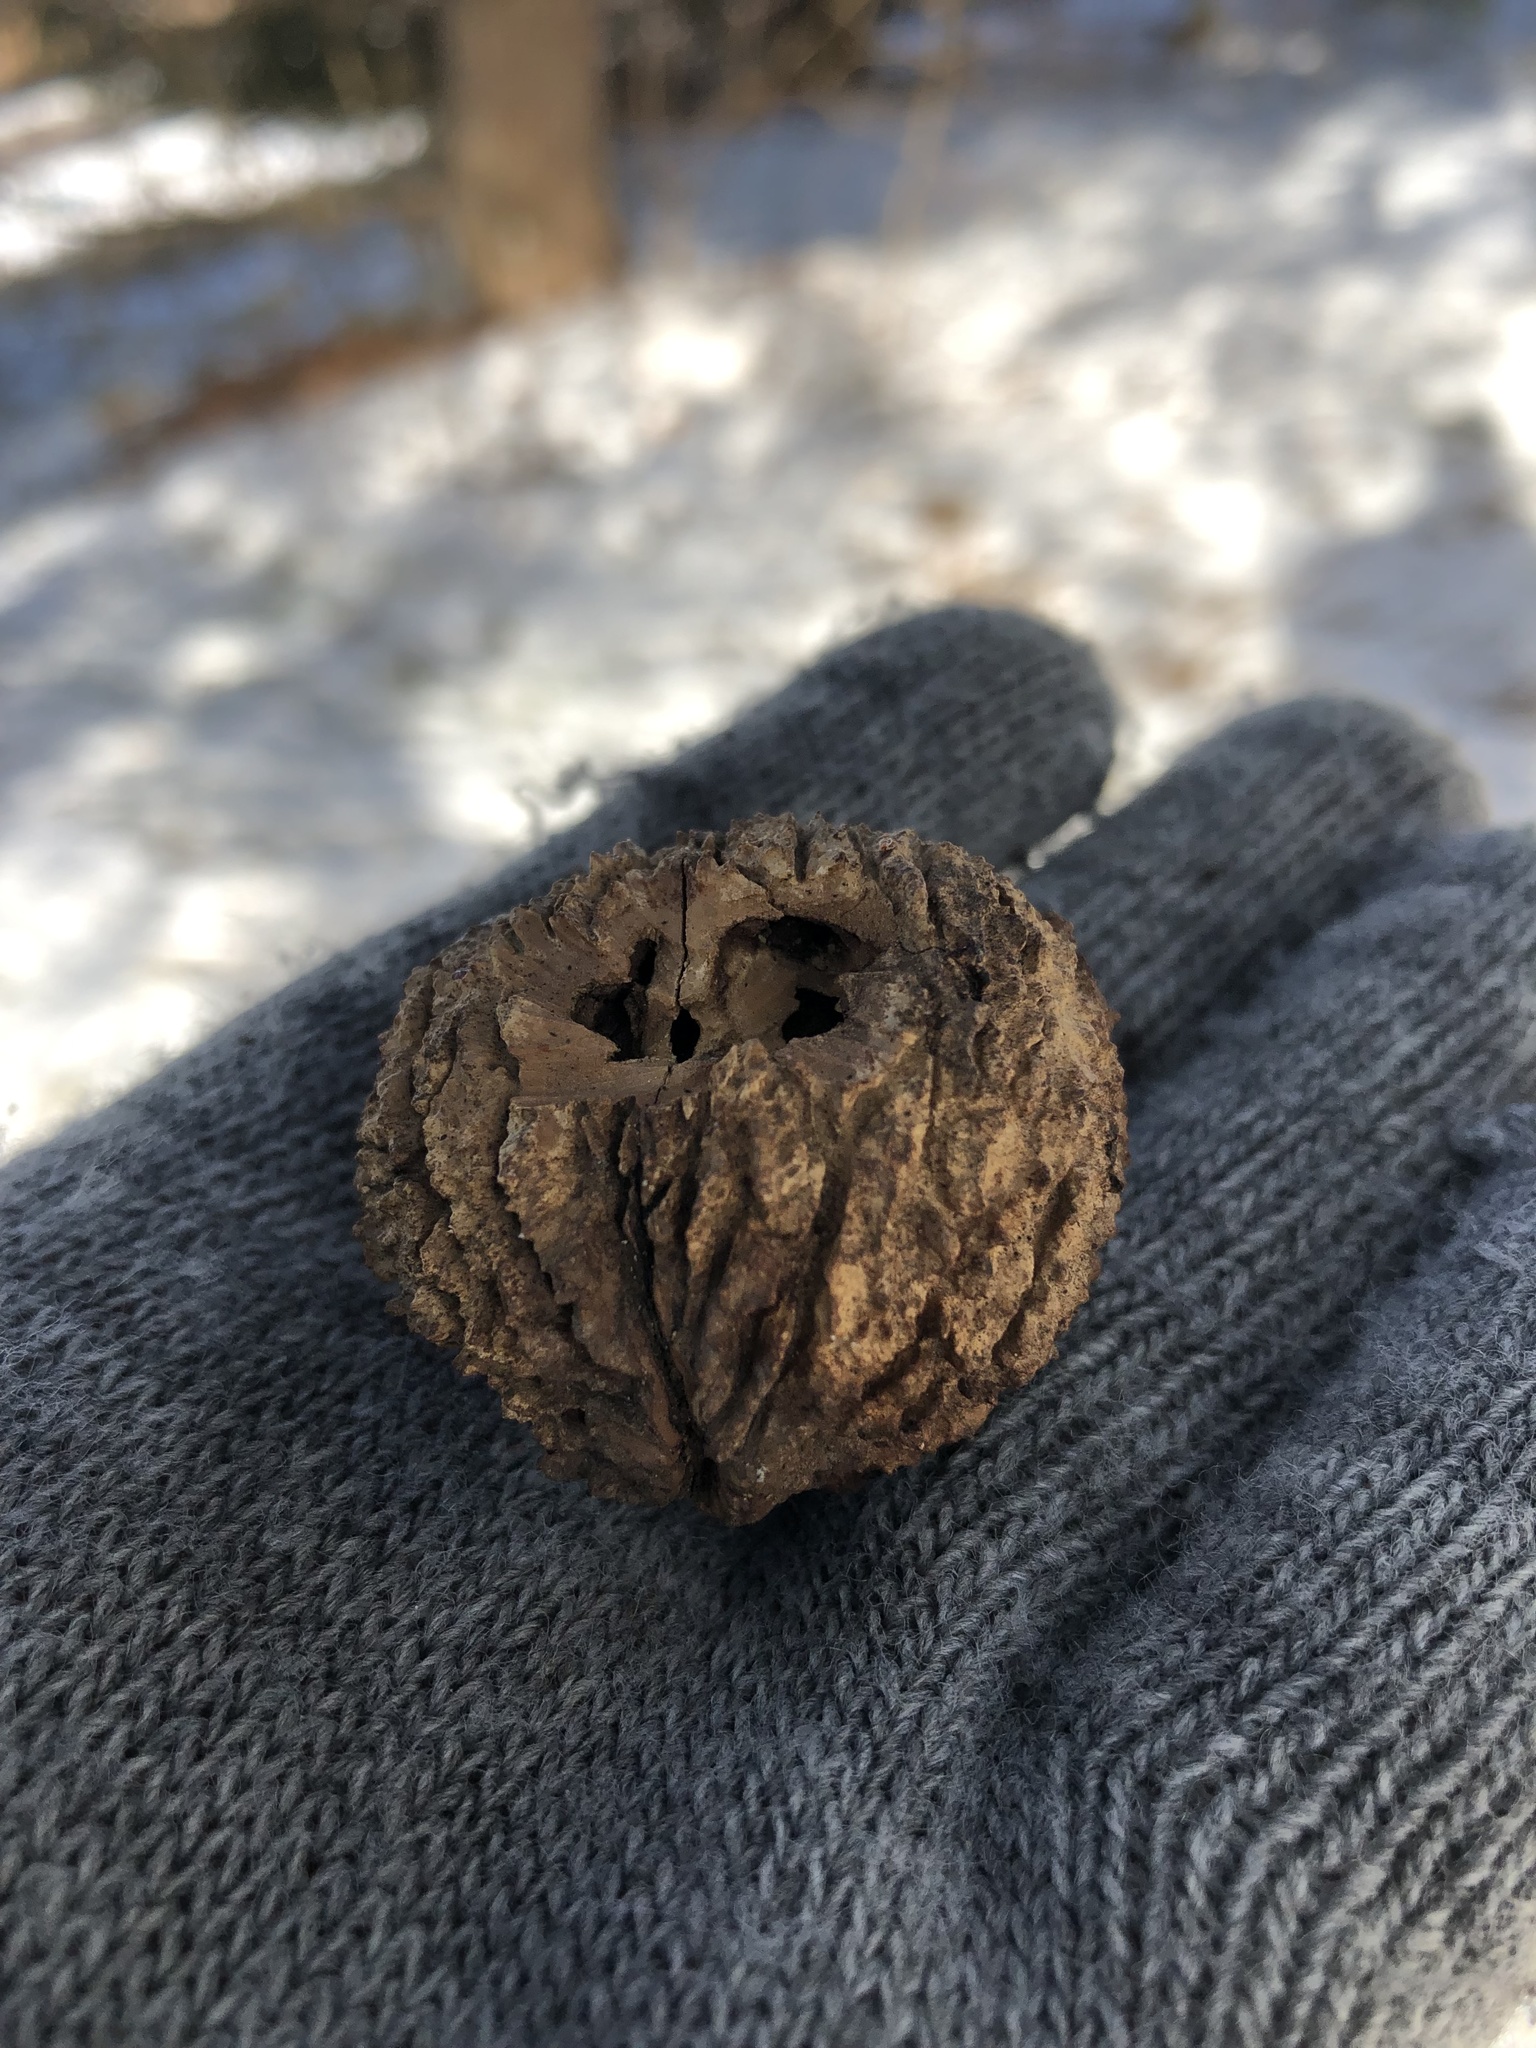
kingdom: Plantae
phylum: Tracheophyta
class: Magnoliopsida
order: Fagales
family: Juglandaceae
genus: Juglans
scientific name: Juglans nigra
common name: Black walnut
